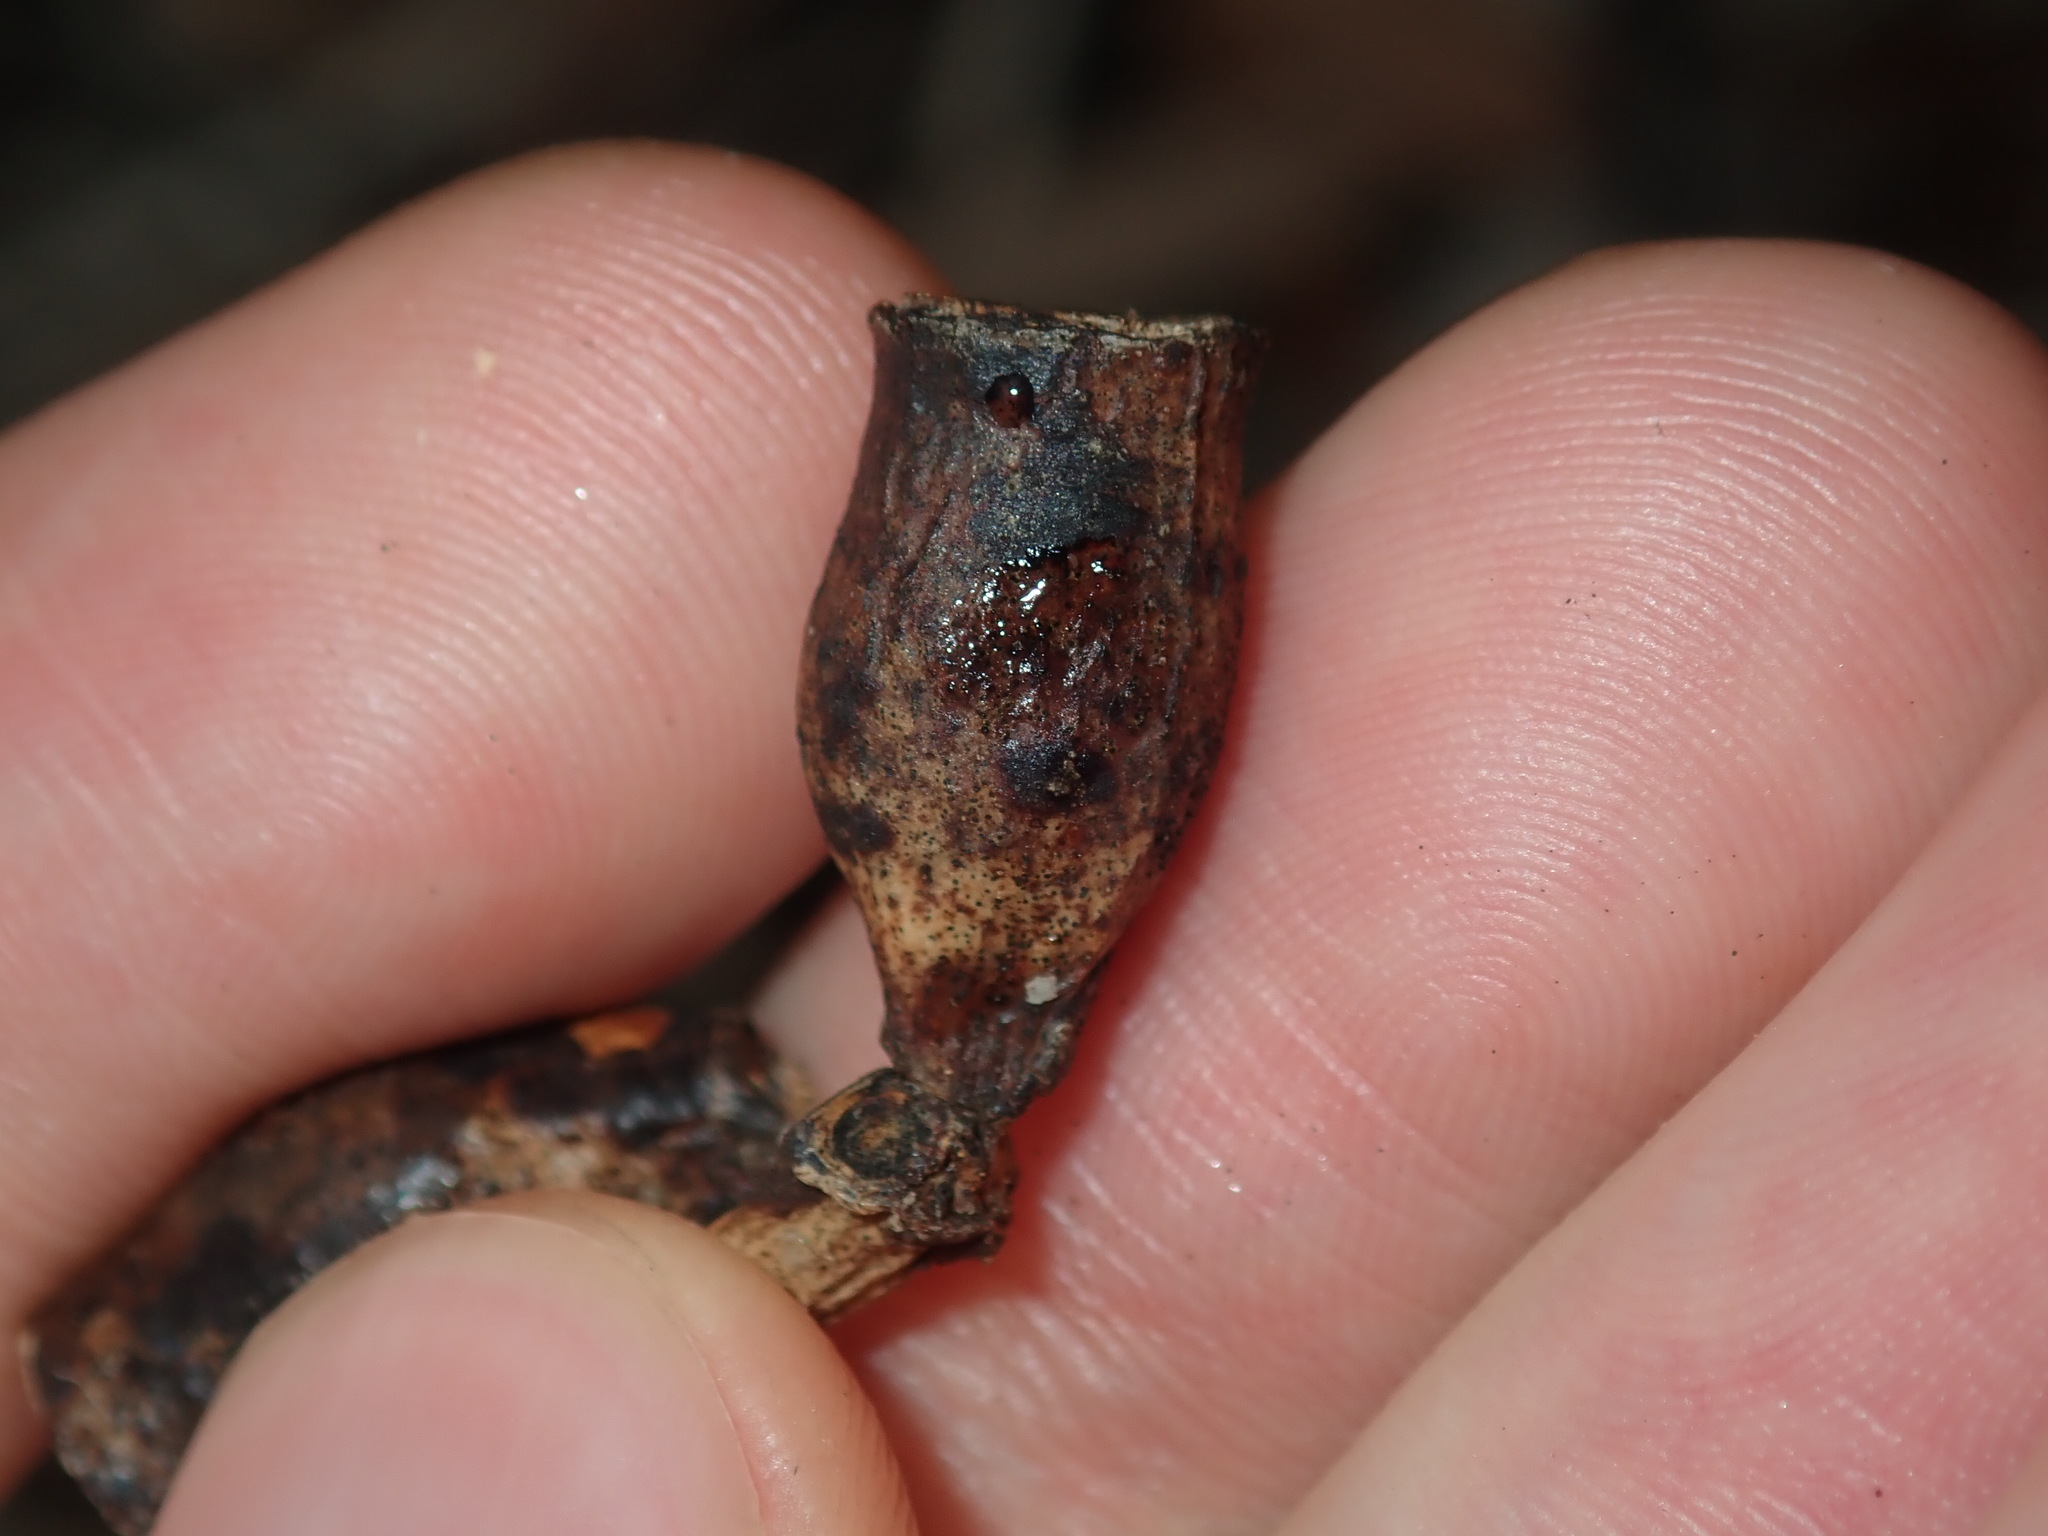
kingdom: Plantae
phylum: Tracheophyta
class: Magnoliopsida
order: Myrtales
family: Myrtaceae
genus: Eucalyptus
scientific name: Eucalyptus robusta
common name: Swampmahogany
